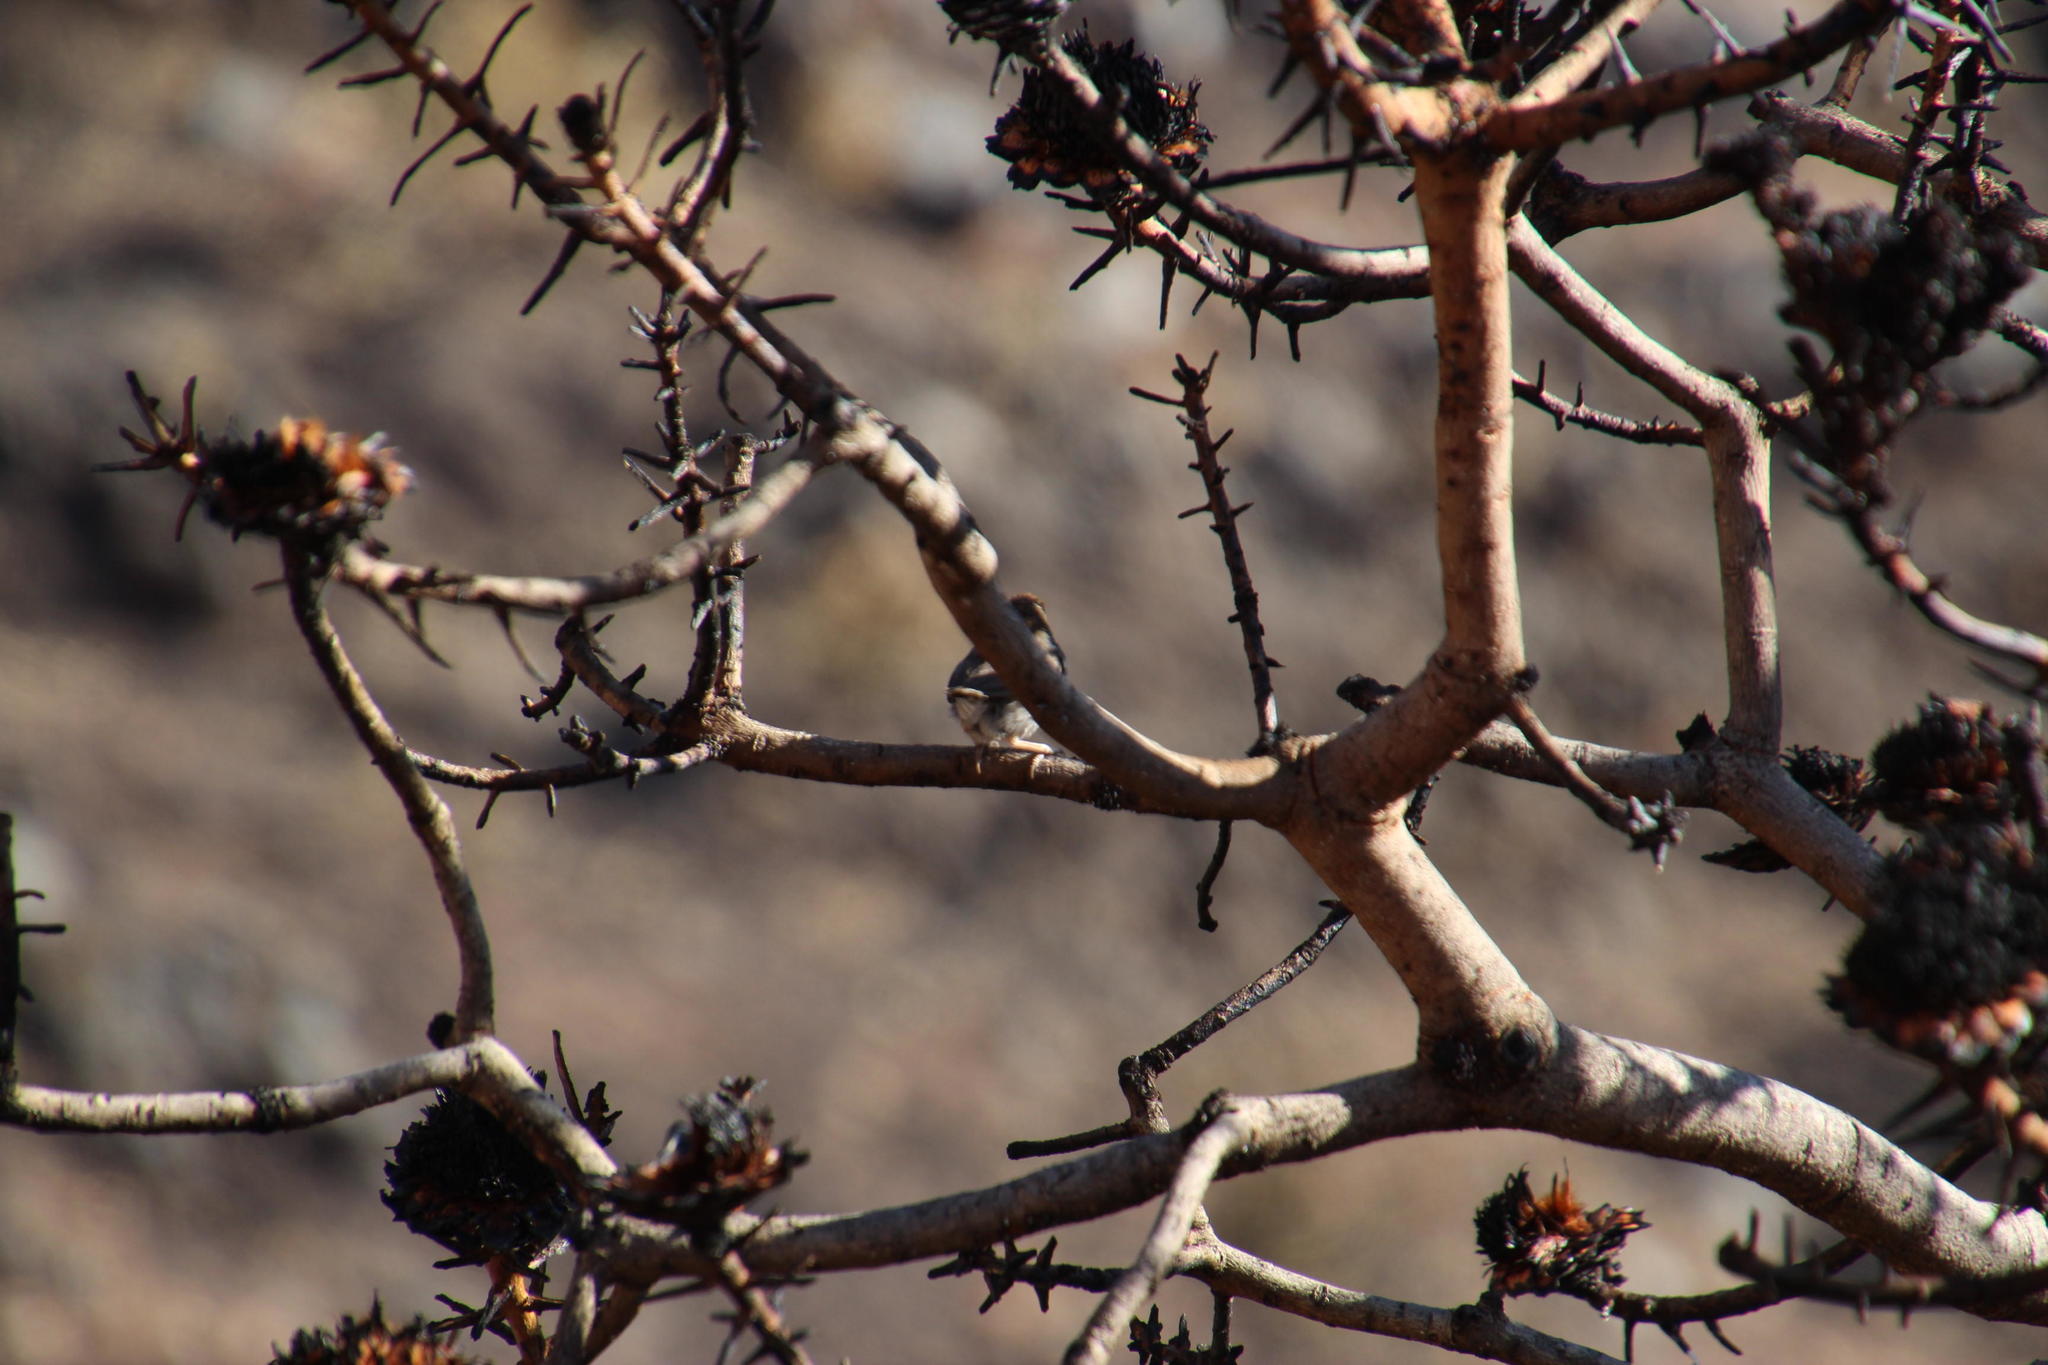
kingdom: Animalia
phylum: Chordata
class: Aves
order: Passeriformes
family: Cisticolidae
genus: Cisticola
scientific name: Cisticola fulvicapilla
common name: Neddicky
